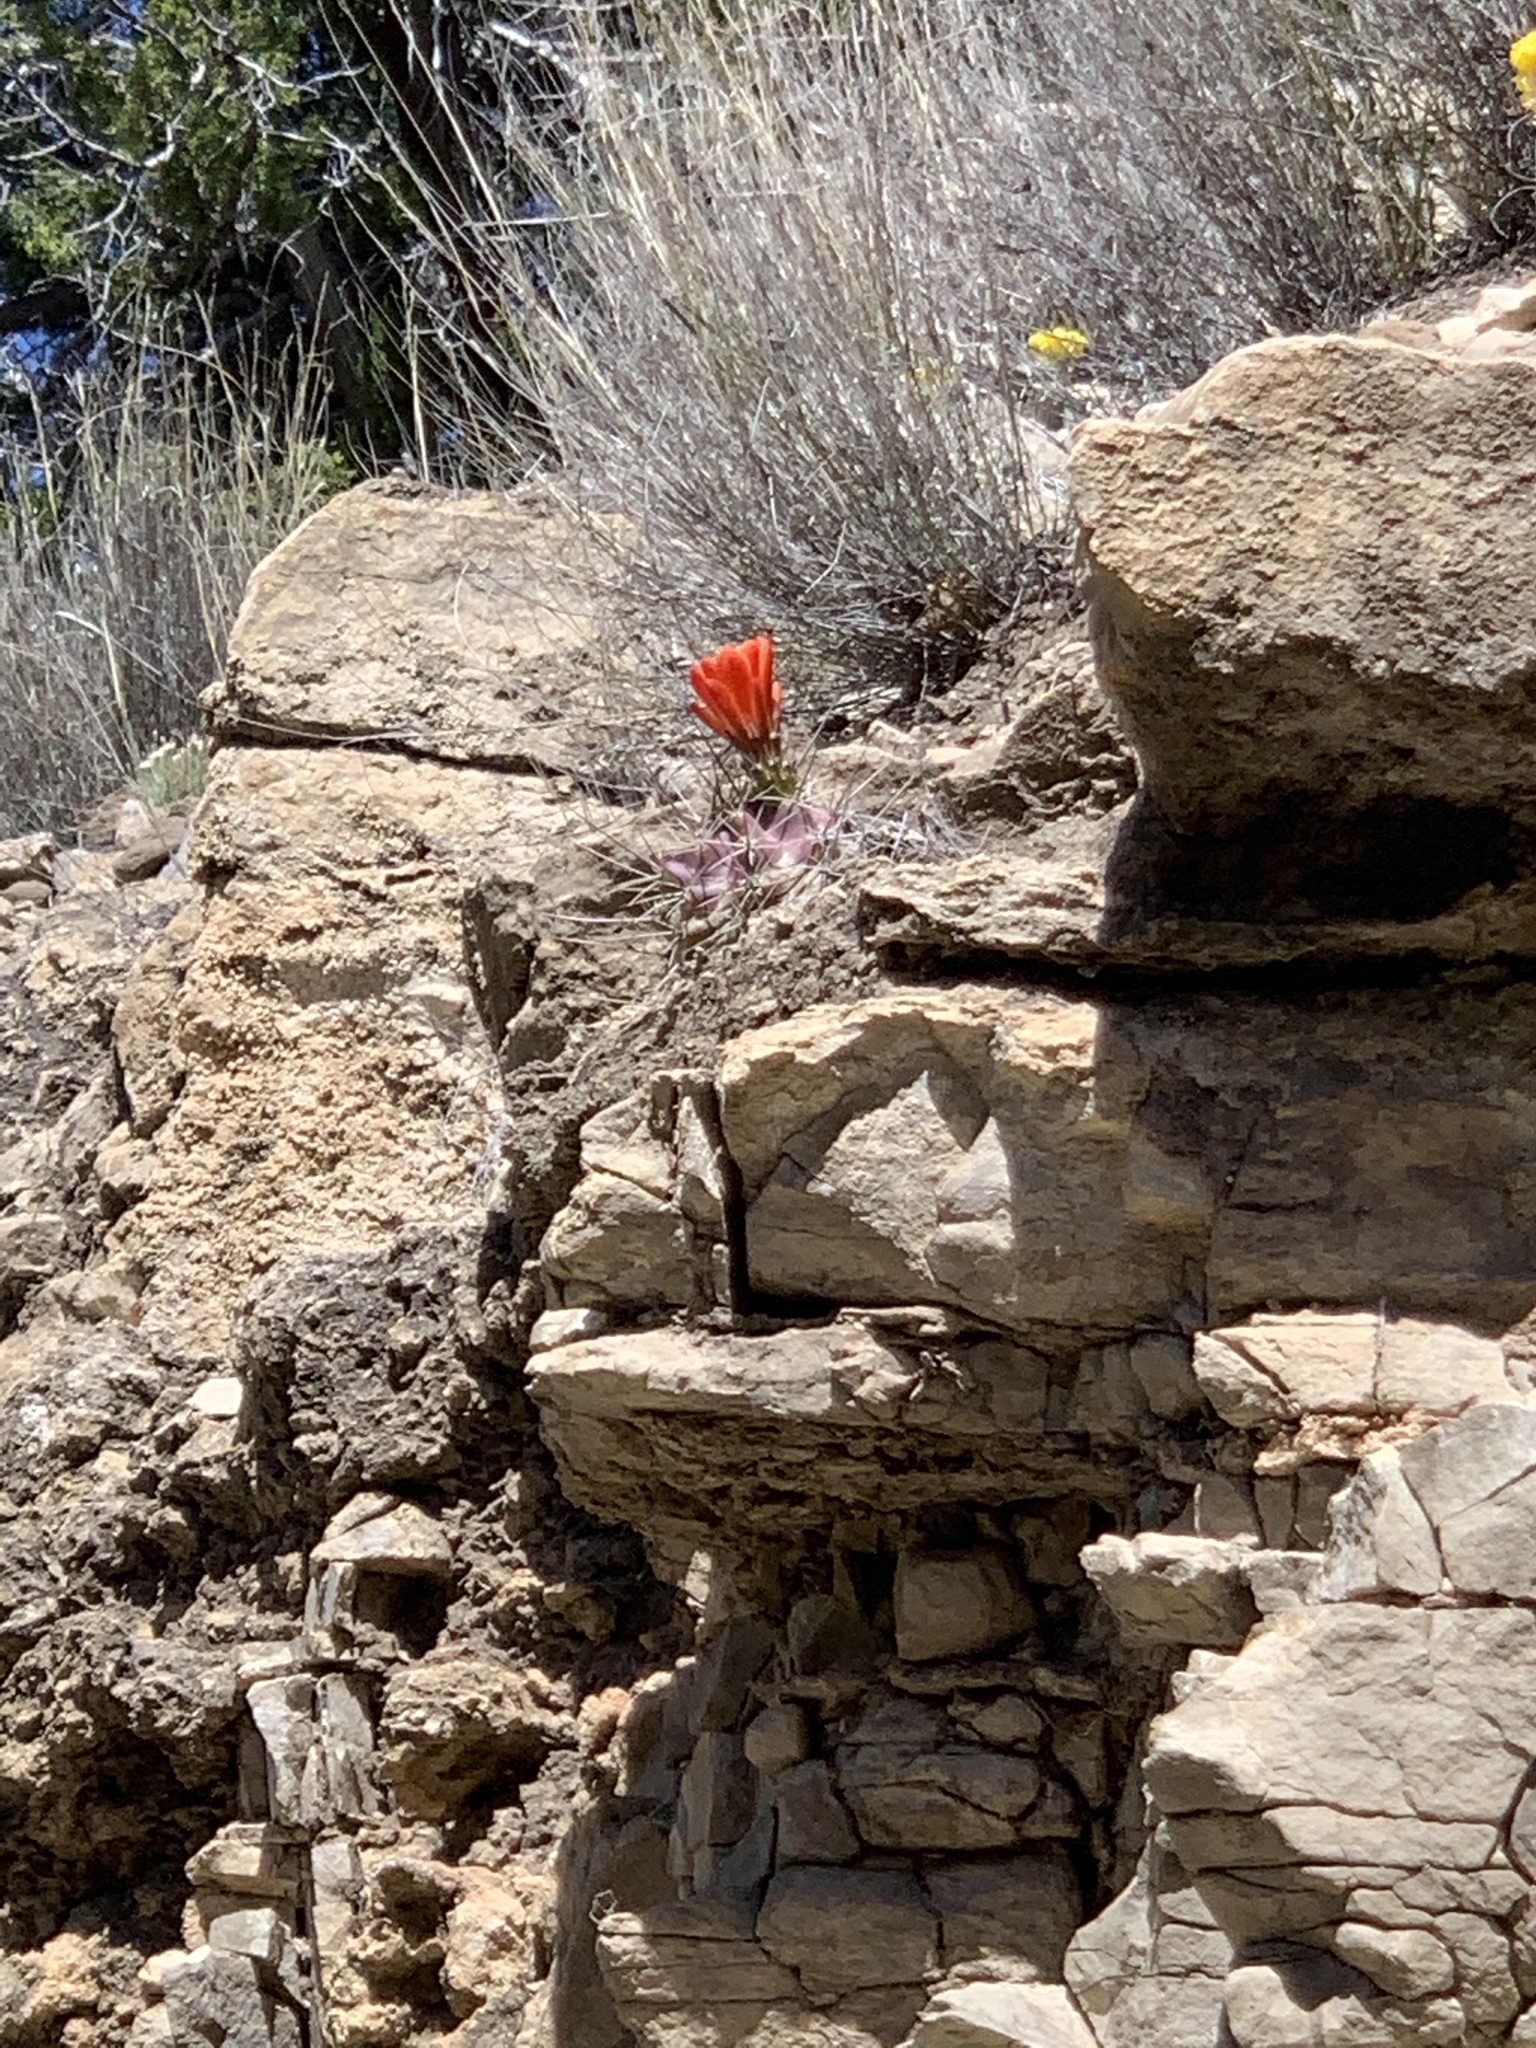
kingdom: Plantae
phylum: Tracheophyta
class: Magnoliopsida
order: Caryophyllales
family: Cactaceae
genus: Echinocereus
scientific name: Echinocereus coccineus
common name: Scarlet hedgehog cactus
